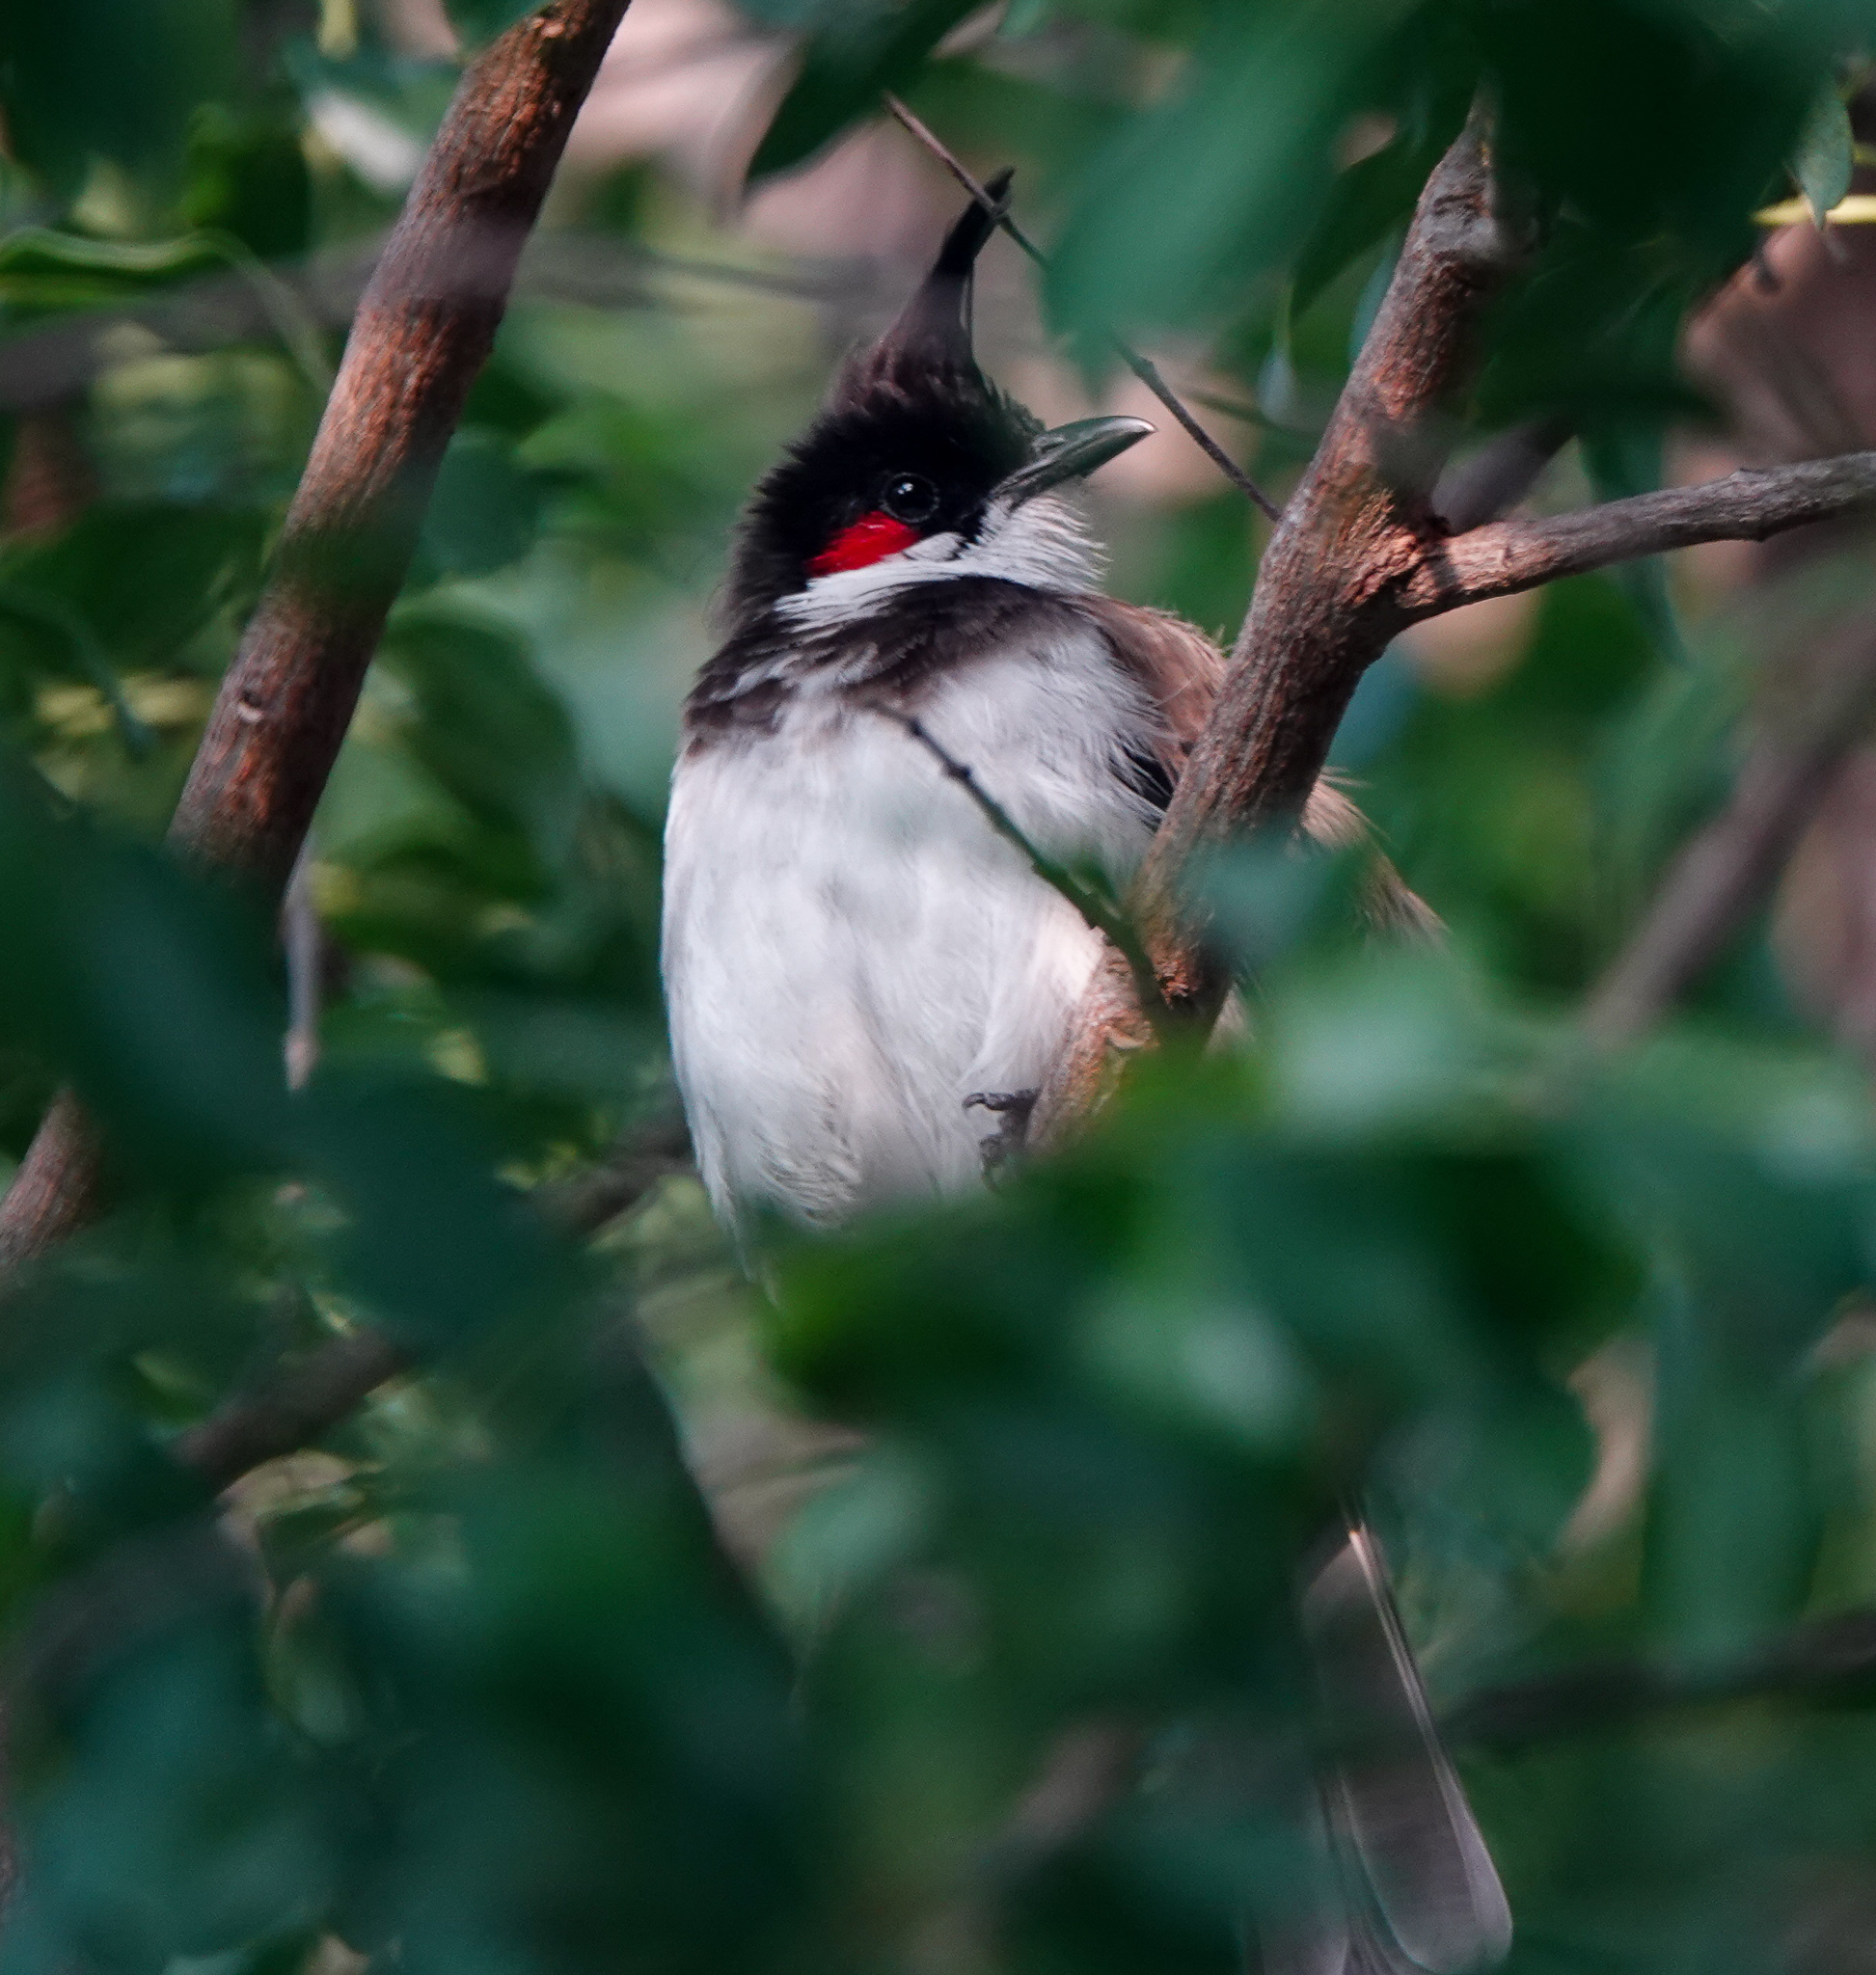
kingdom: Animalia
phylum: Chordata
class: Aves
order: Passeriformes
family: Pycnonotidae
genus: Pycnonotus
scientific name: Pycnonotus jocosus
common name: Red-whiskered bulbul
